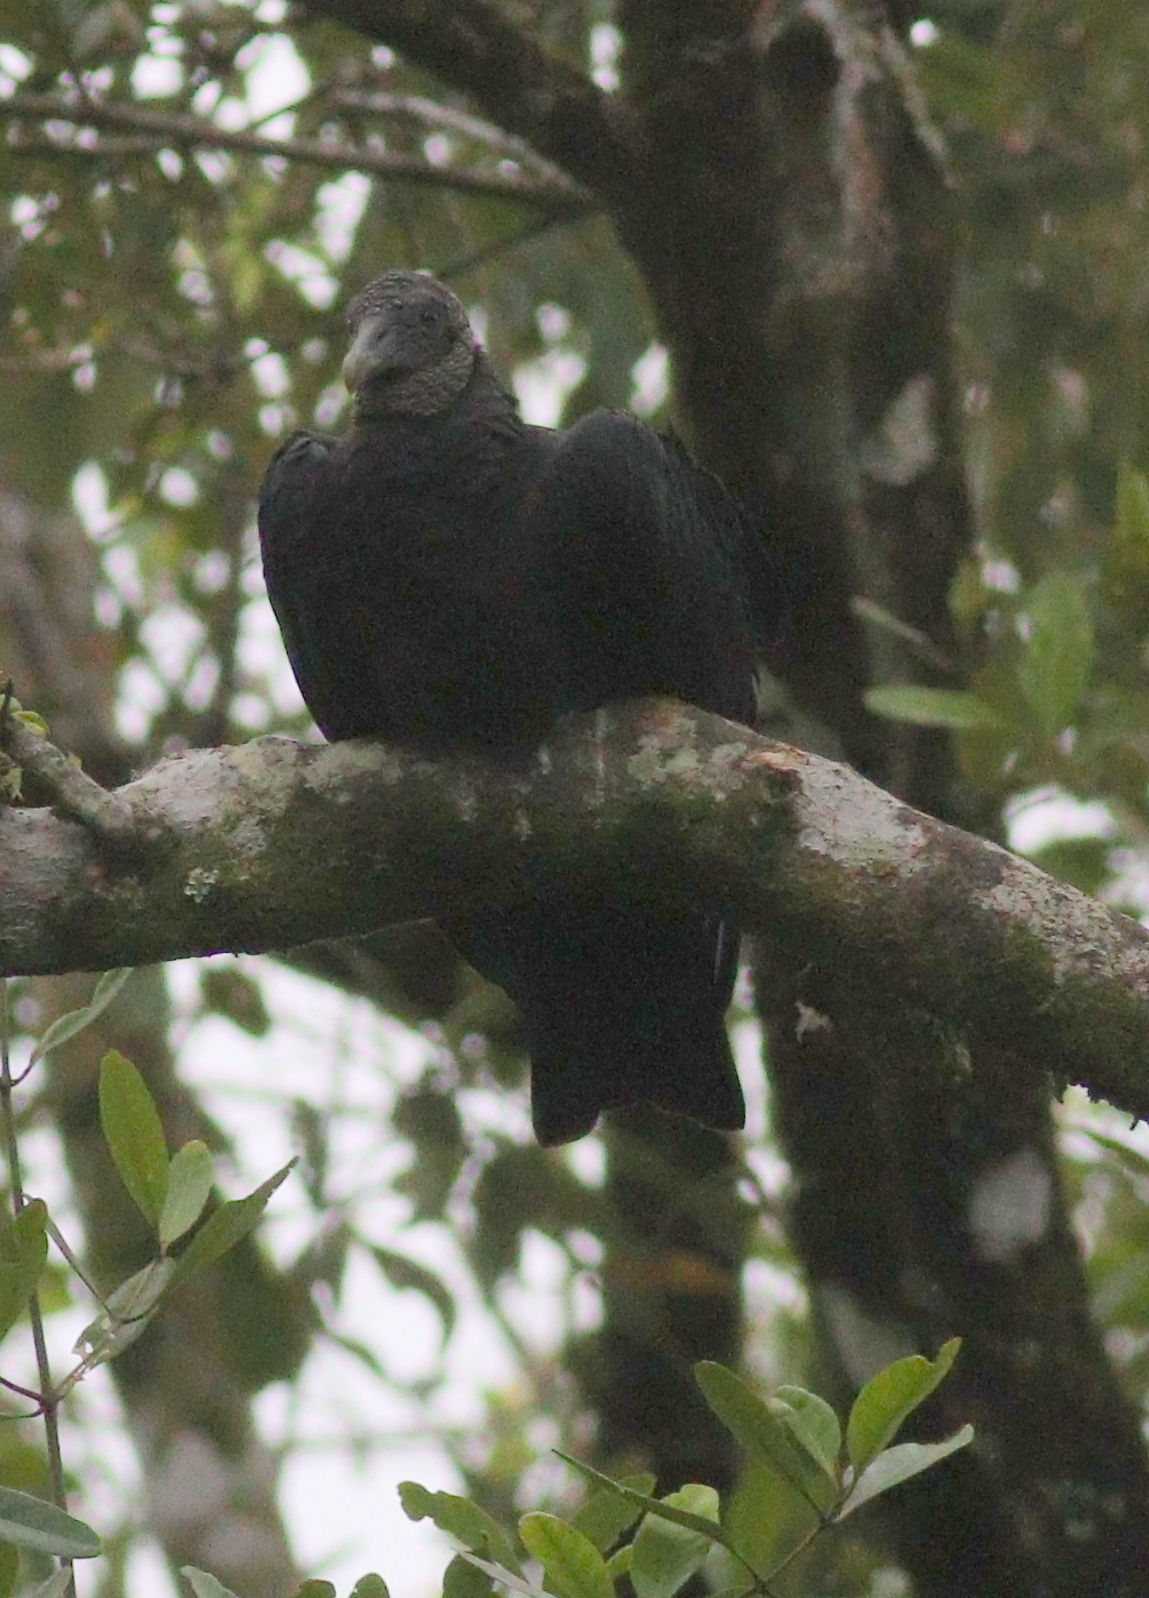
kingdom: Animalia
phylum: Chordata
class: Aves
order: Accipitriformes
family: Cathartidae
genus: Coragyps
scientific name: Coragyps atratus
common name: Black vulture
